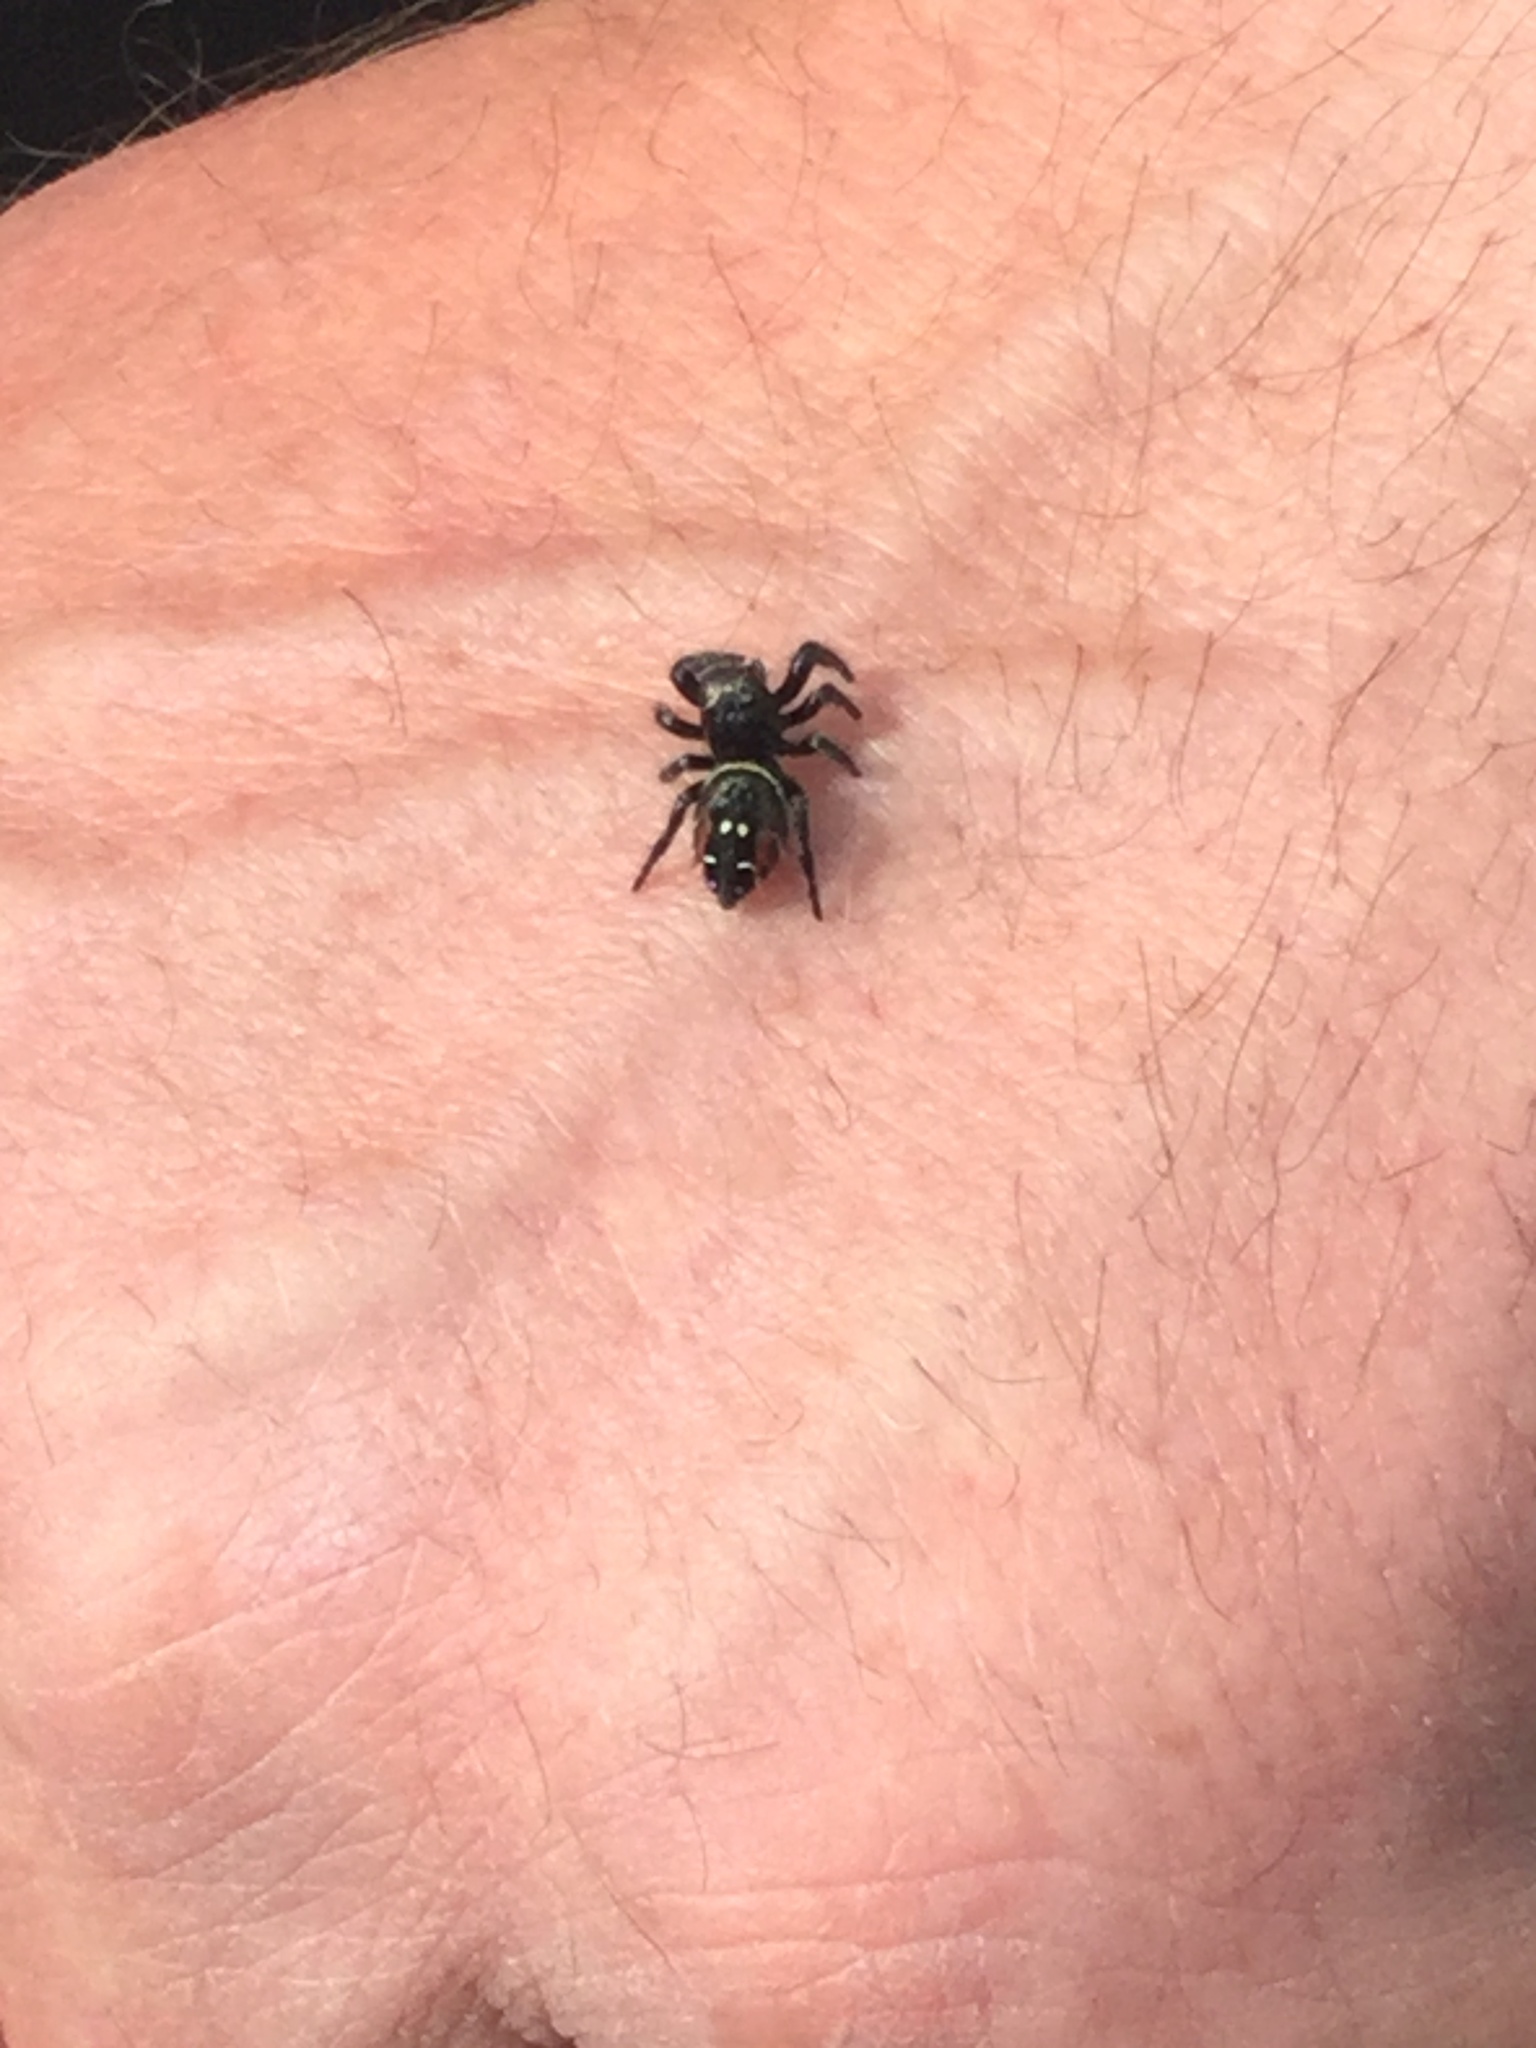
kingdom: Animalia
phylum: Arthropoda
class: Arachnida
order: Araneae
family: Salticidae
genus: Phidippus
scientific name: Phidippus johnsoni
